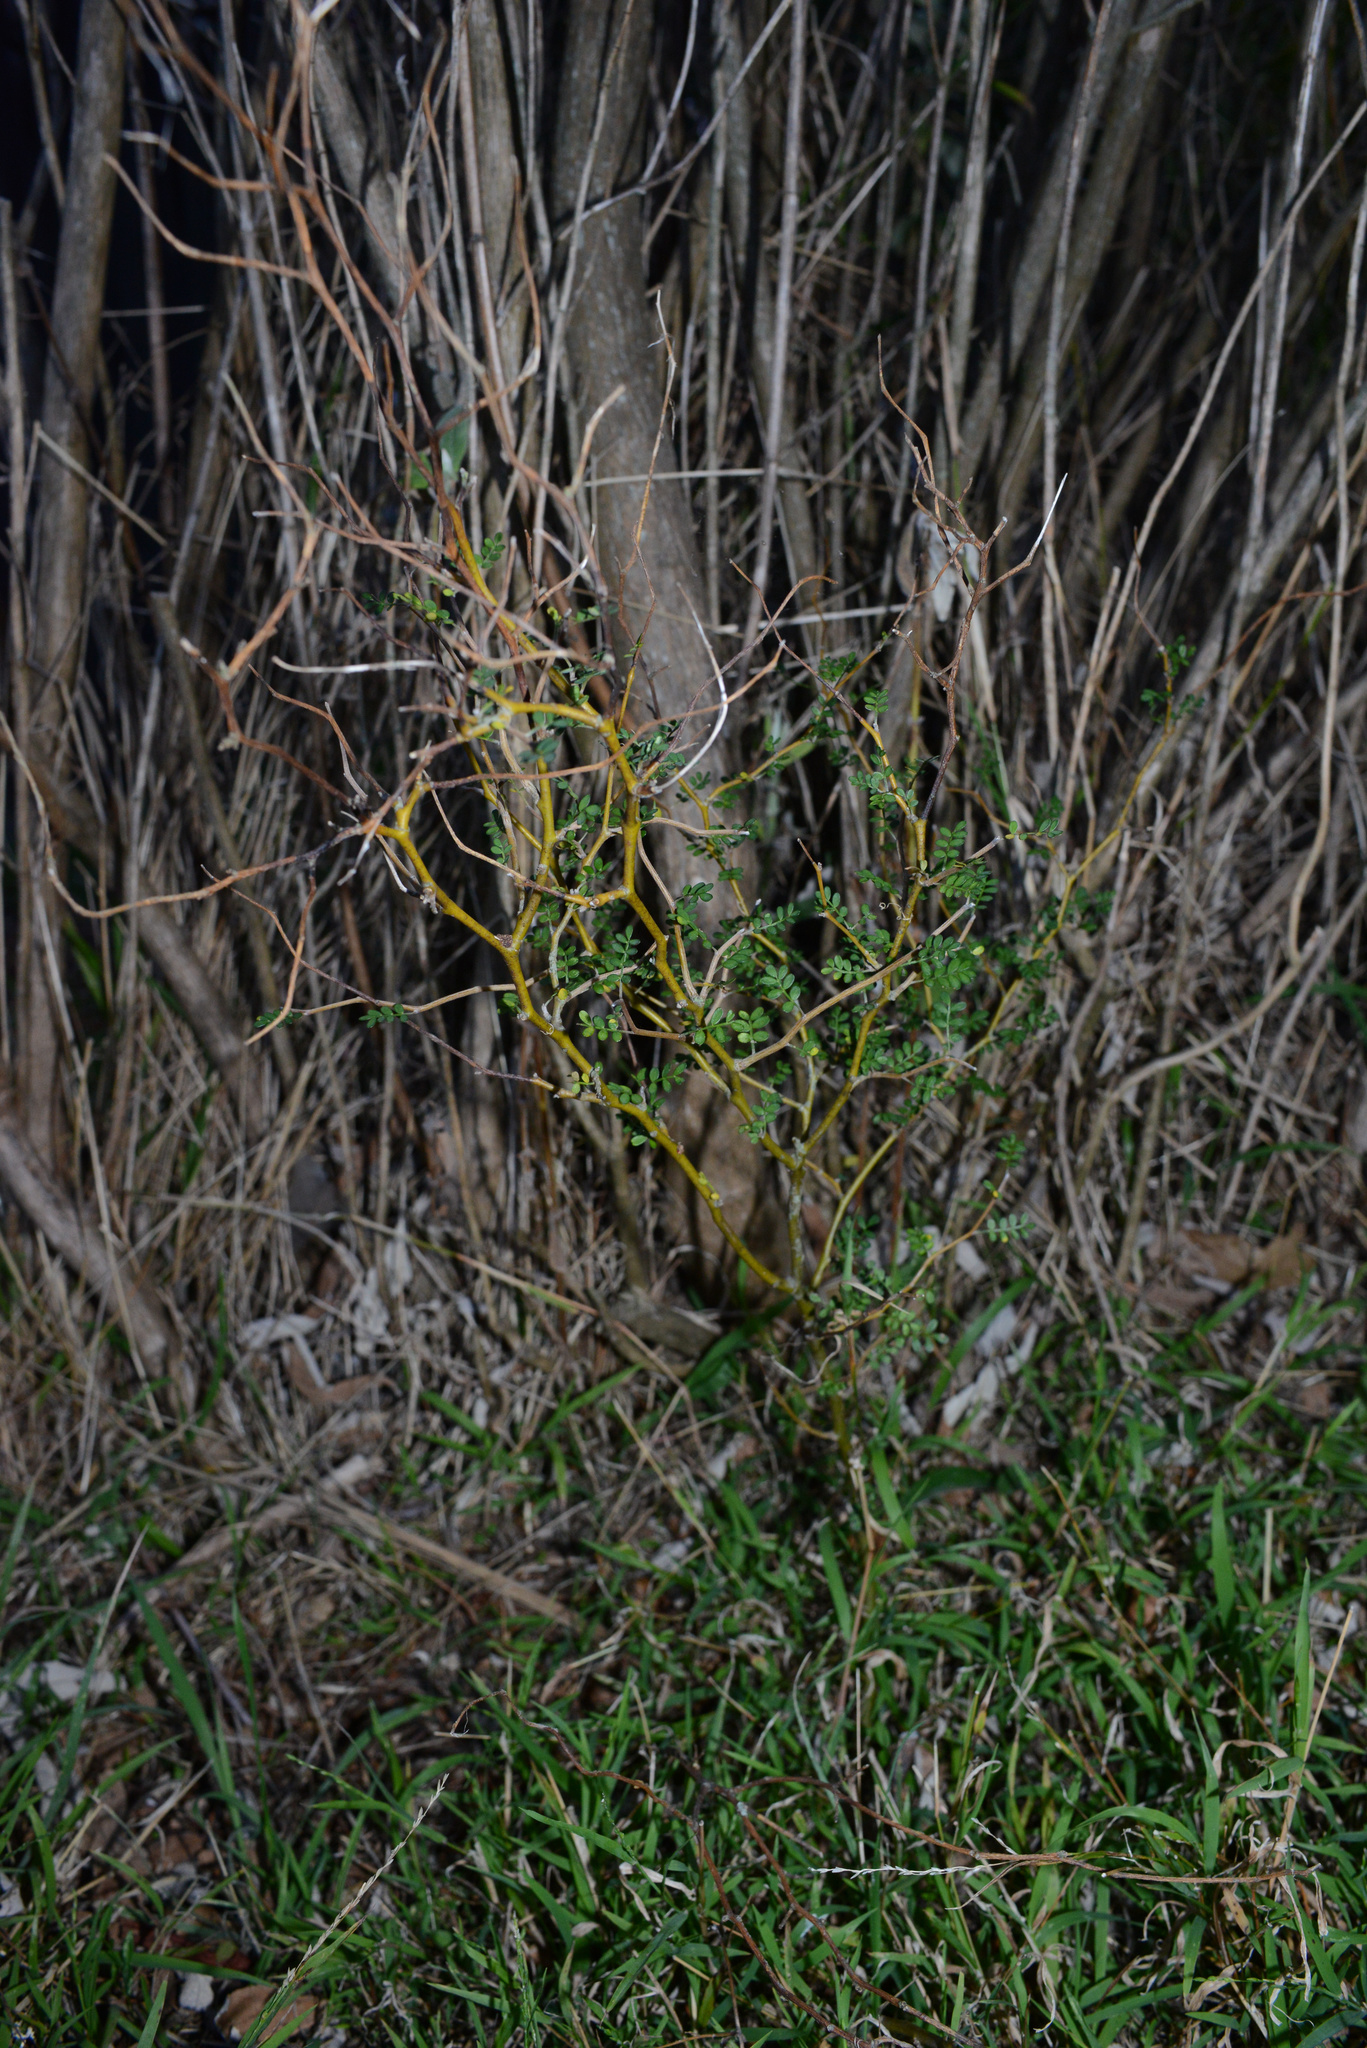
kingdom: Plantae
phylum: Tracheophyta
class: Magnoliopsida
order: Fabales
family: Fabaceae
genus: Sophora
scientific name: Sophora microphylla
